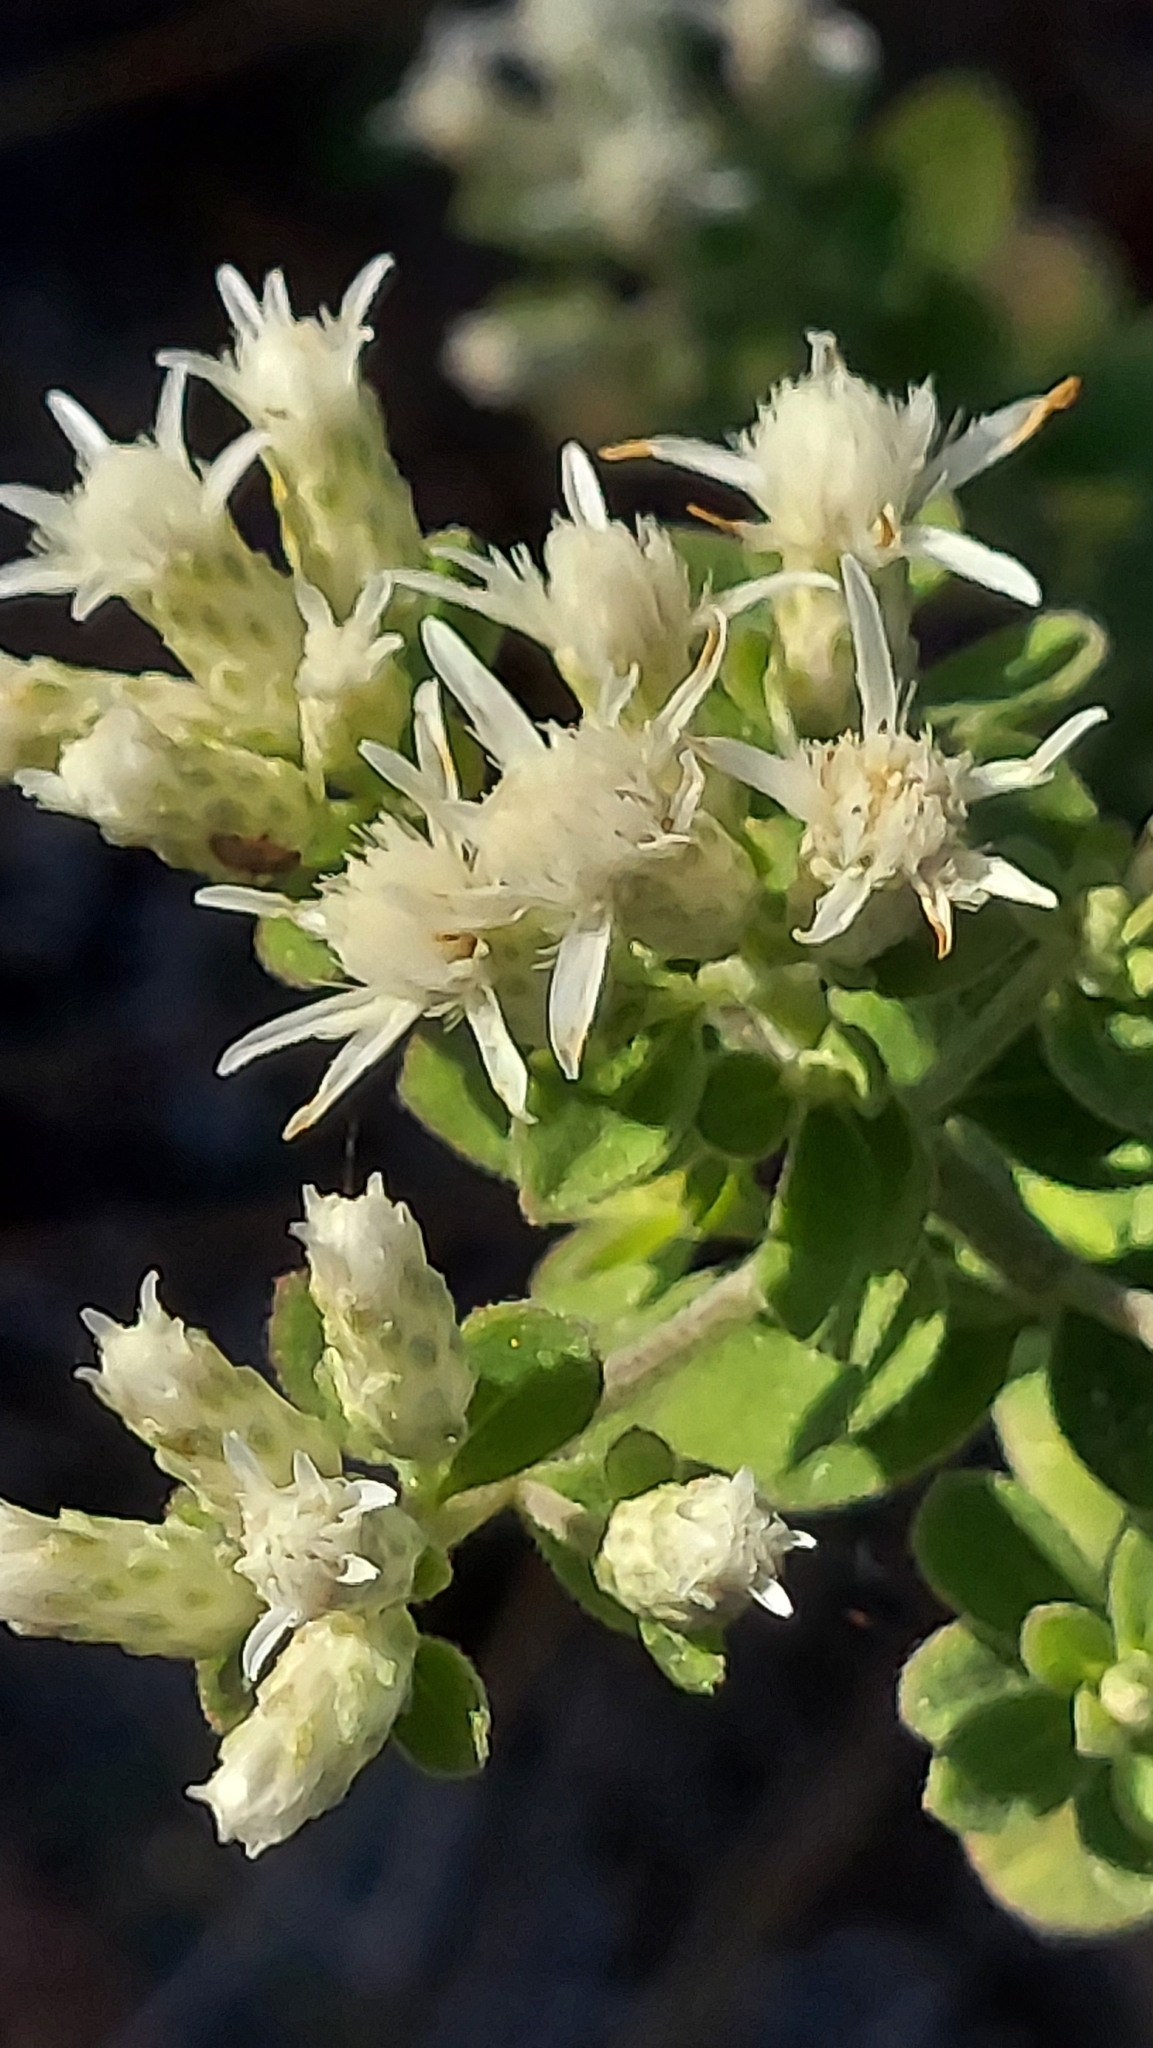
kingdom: Plantae
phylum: Tracheophyta
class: Magnoliopsida
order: Asterales
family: Asteraceae
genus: Sericocarpus
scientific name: Sericocarpus tortifolius
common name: Dixie aster
